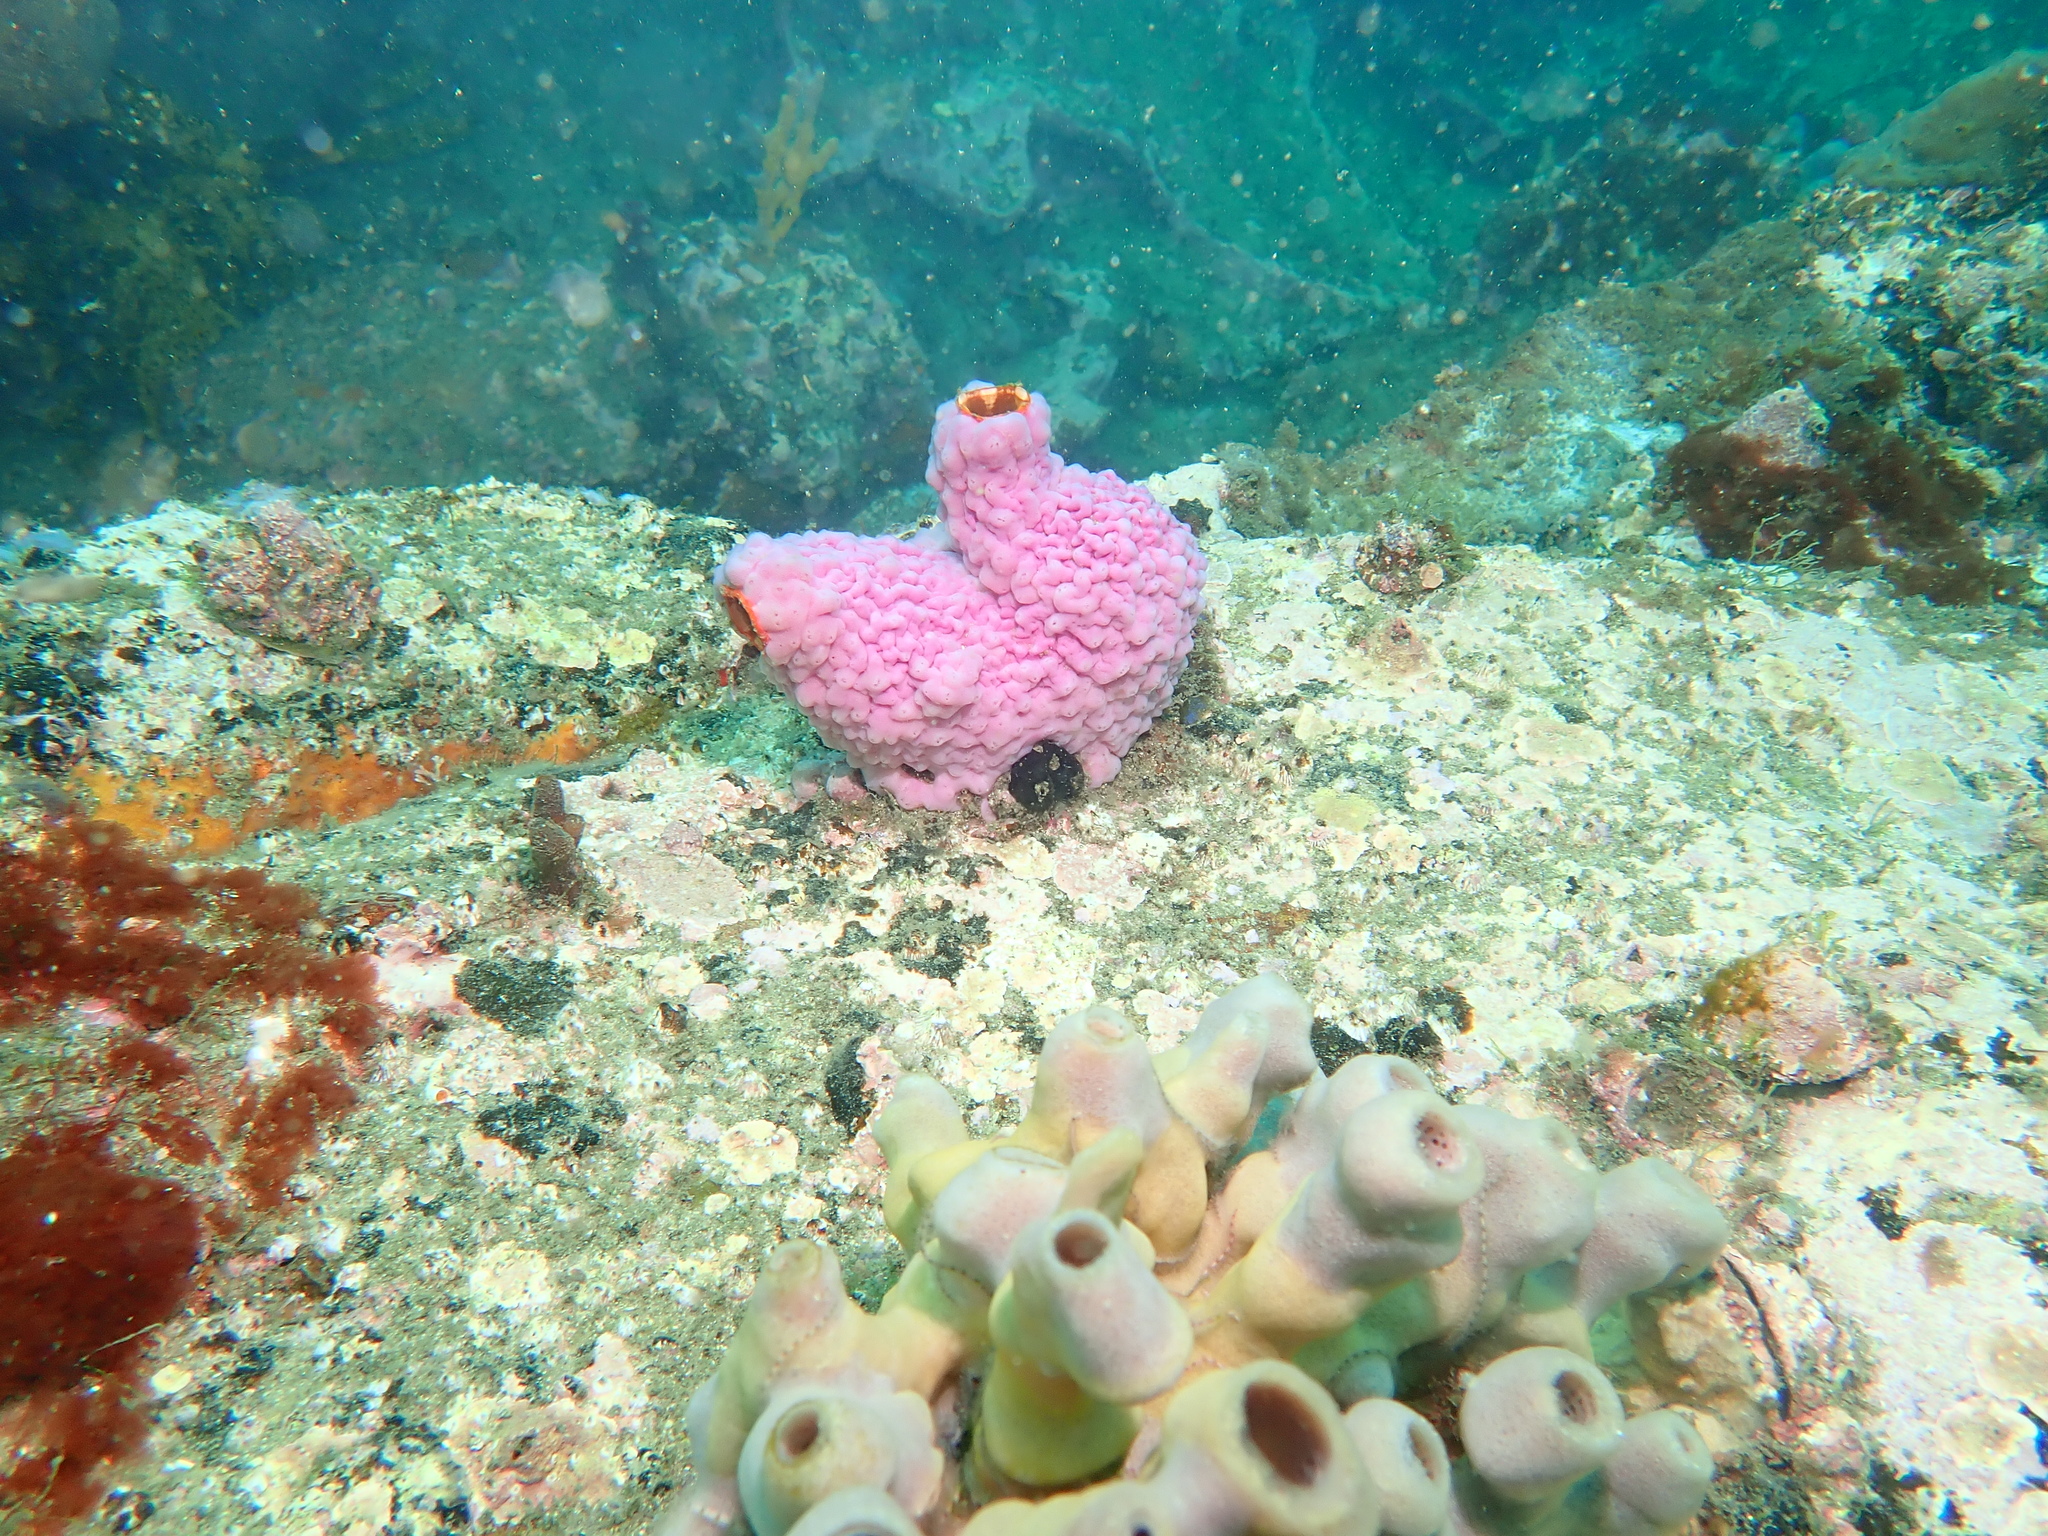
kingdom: Animalia
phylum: Chordata
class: Ascidiacea
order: Stolidobranchia
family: Styelidae
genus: Cnemidocarpa
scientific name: Cnemidocarpa pedata
